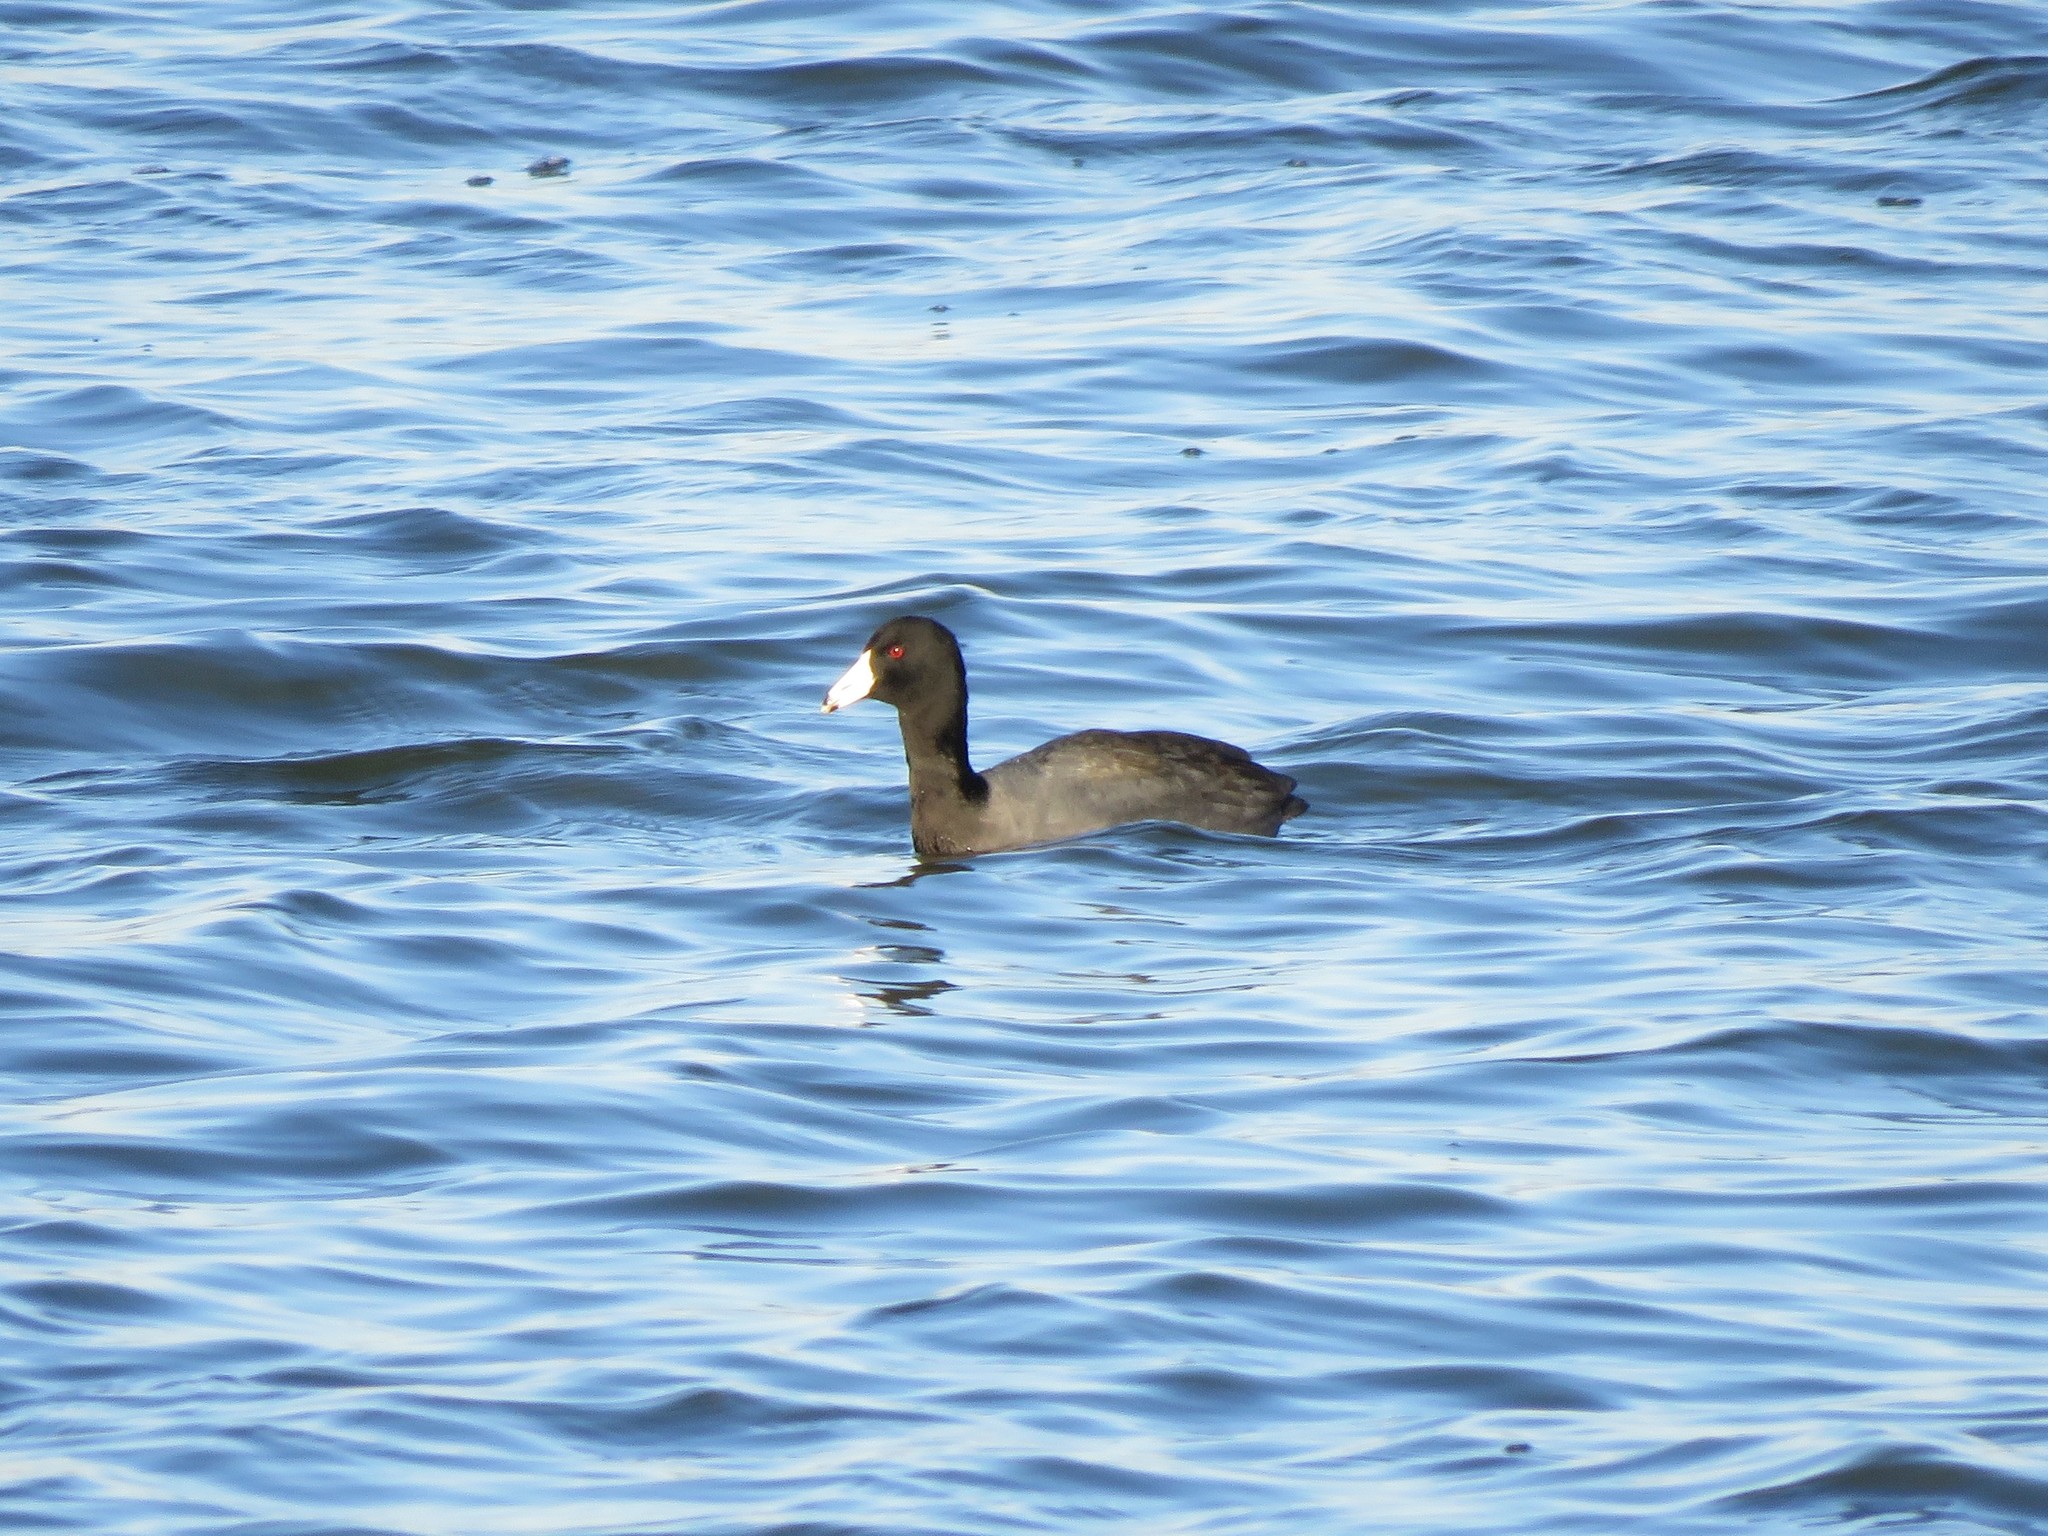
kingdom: Animalia
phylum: Chordata
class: Aves
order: Gruiformes
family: Rallidae
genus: Fulica
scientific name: Fulica americana
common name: American coot
